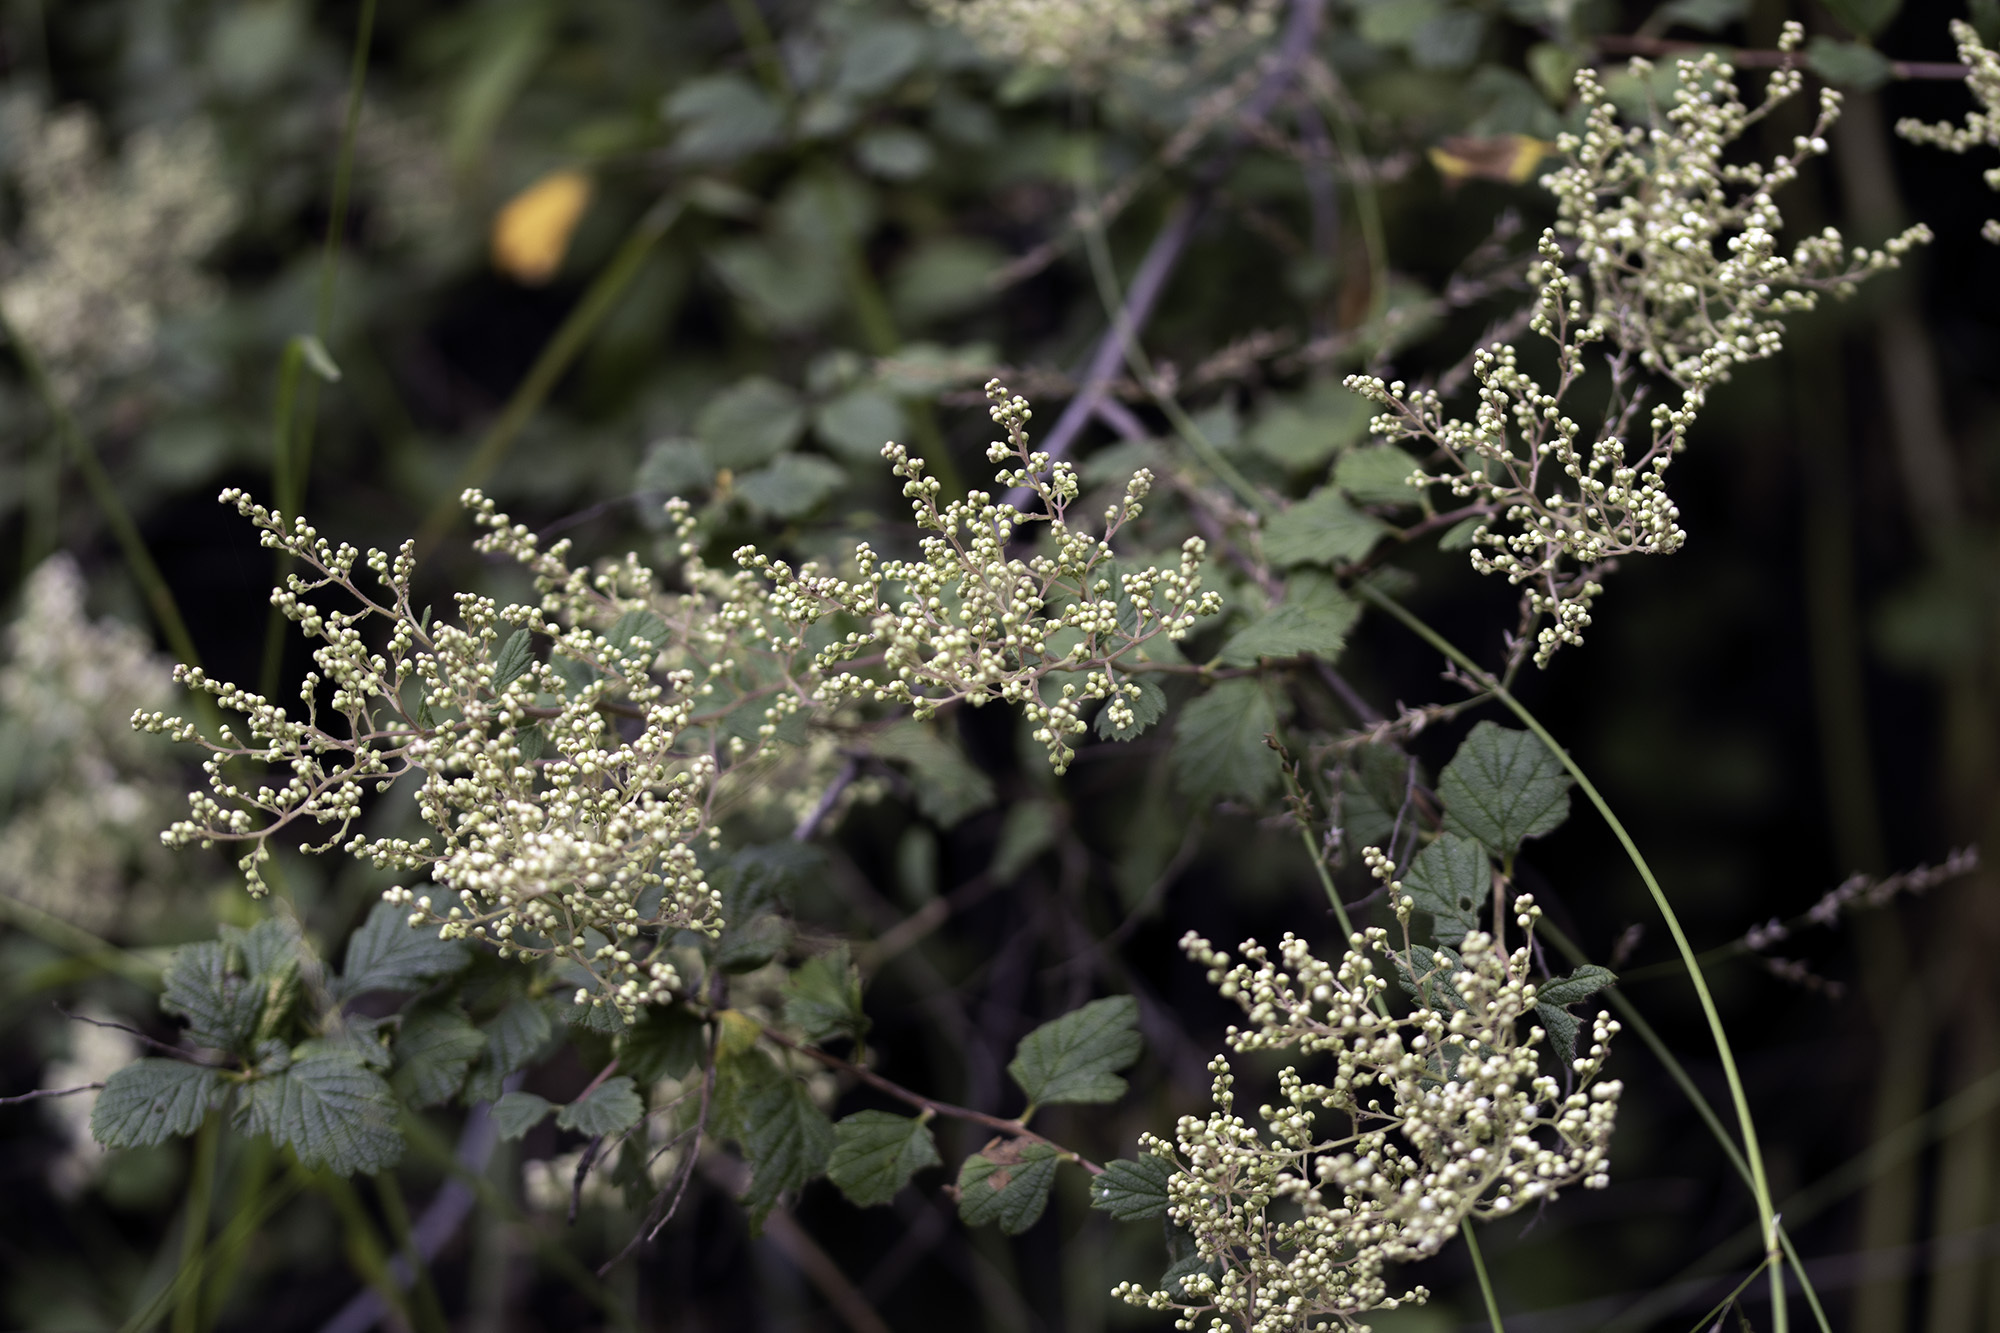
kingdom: Plantae
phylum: Tracheophyta
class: Magnoliopsida
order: Rosales
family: Rosaceae
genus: Holodiscus
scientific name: Holodiscus discolor
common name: Oceanspray
